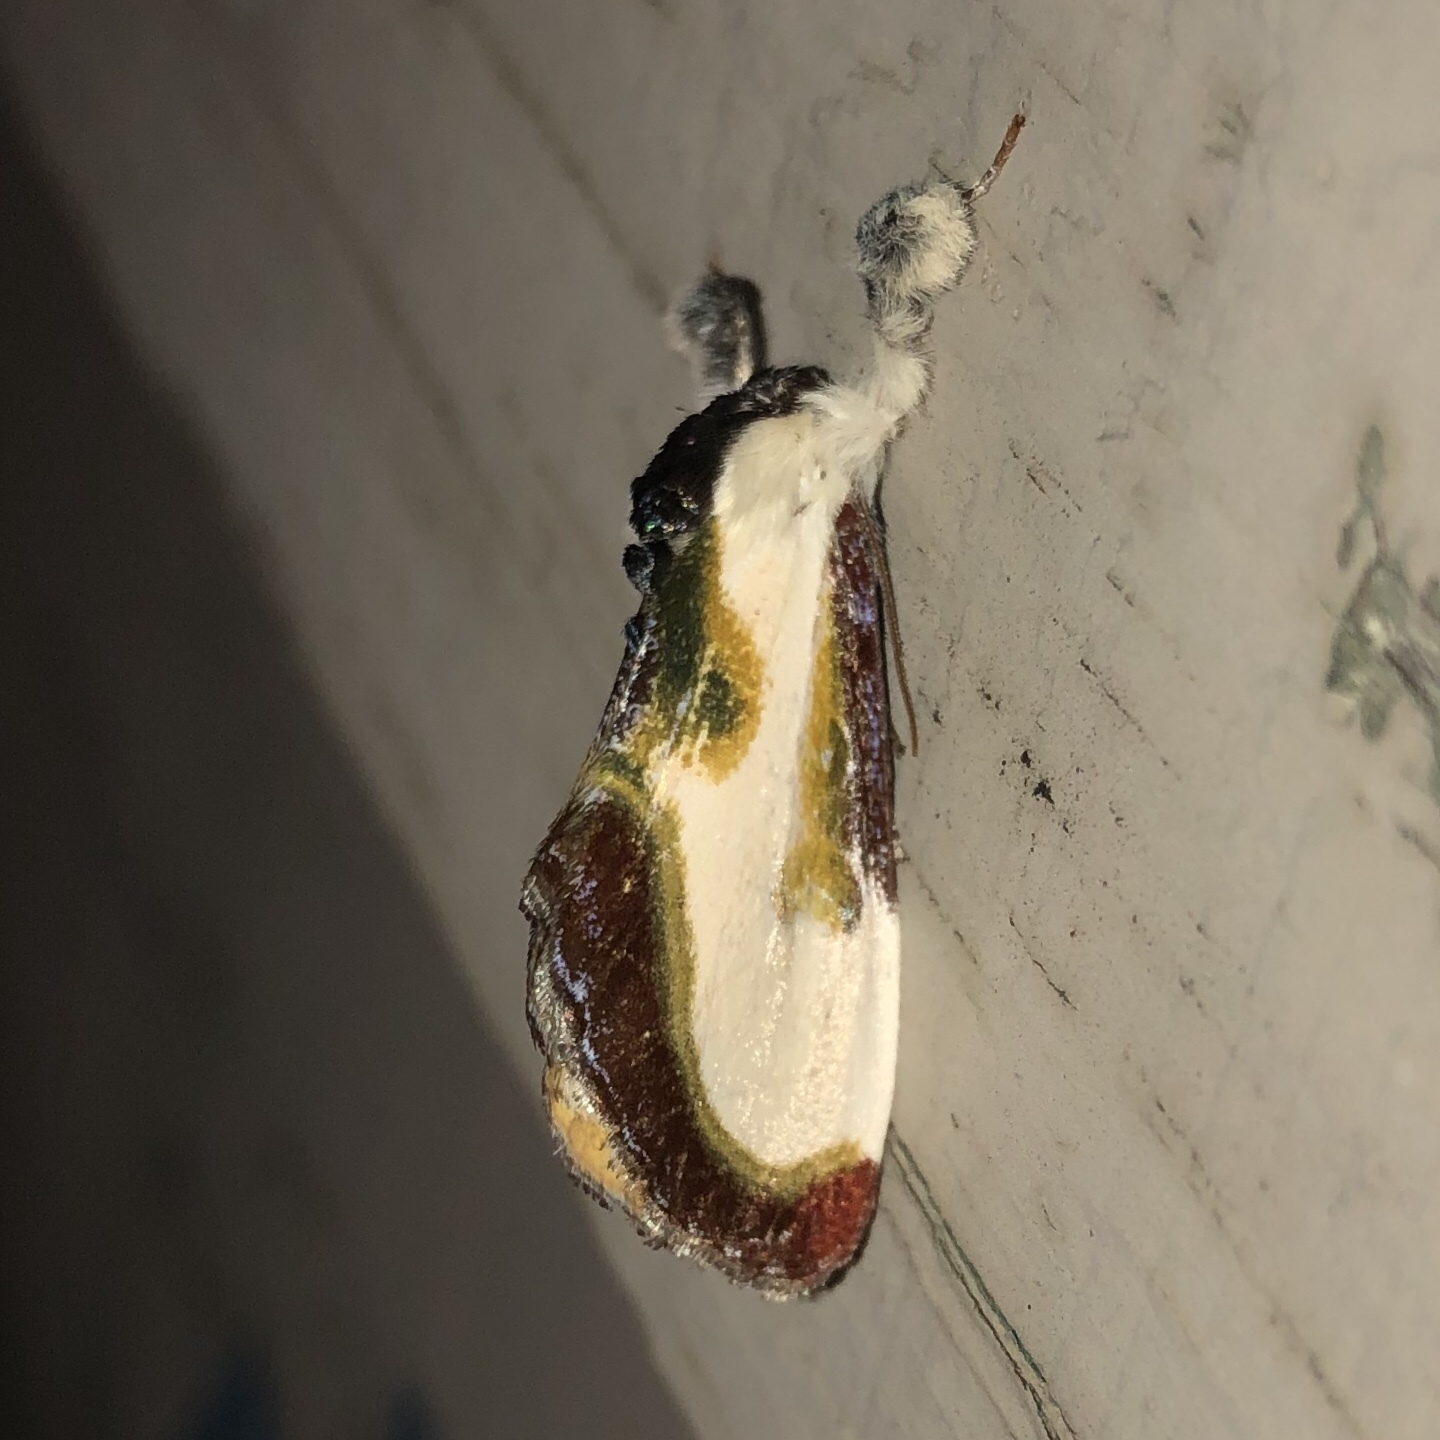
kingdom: Animalia
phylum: Arthropoda
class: Insecta
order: Lepidoptera
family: Noctuidae
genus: Eudryas
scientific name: Eudryas grata
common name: Beautiful wood-nymph
